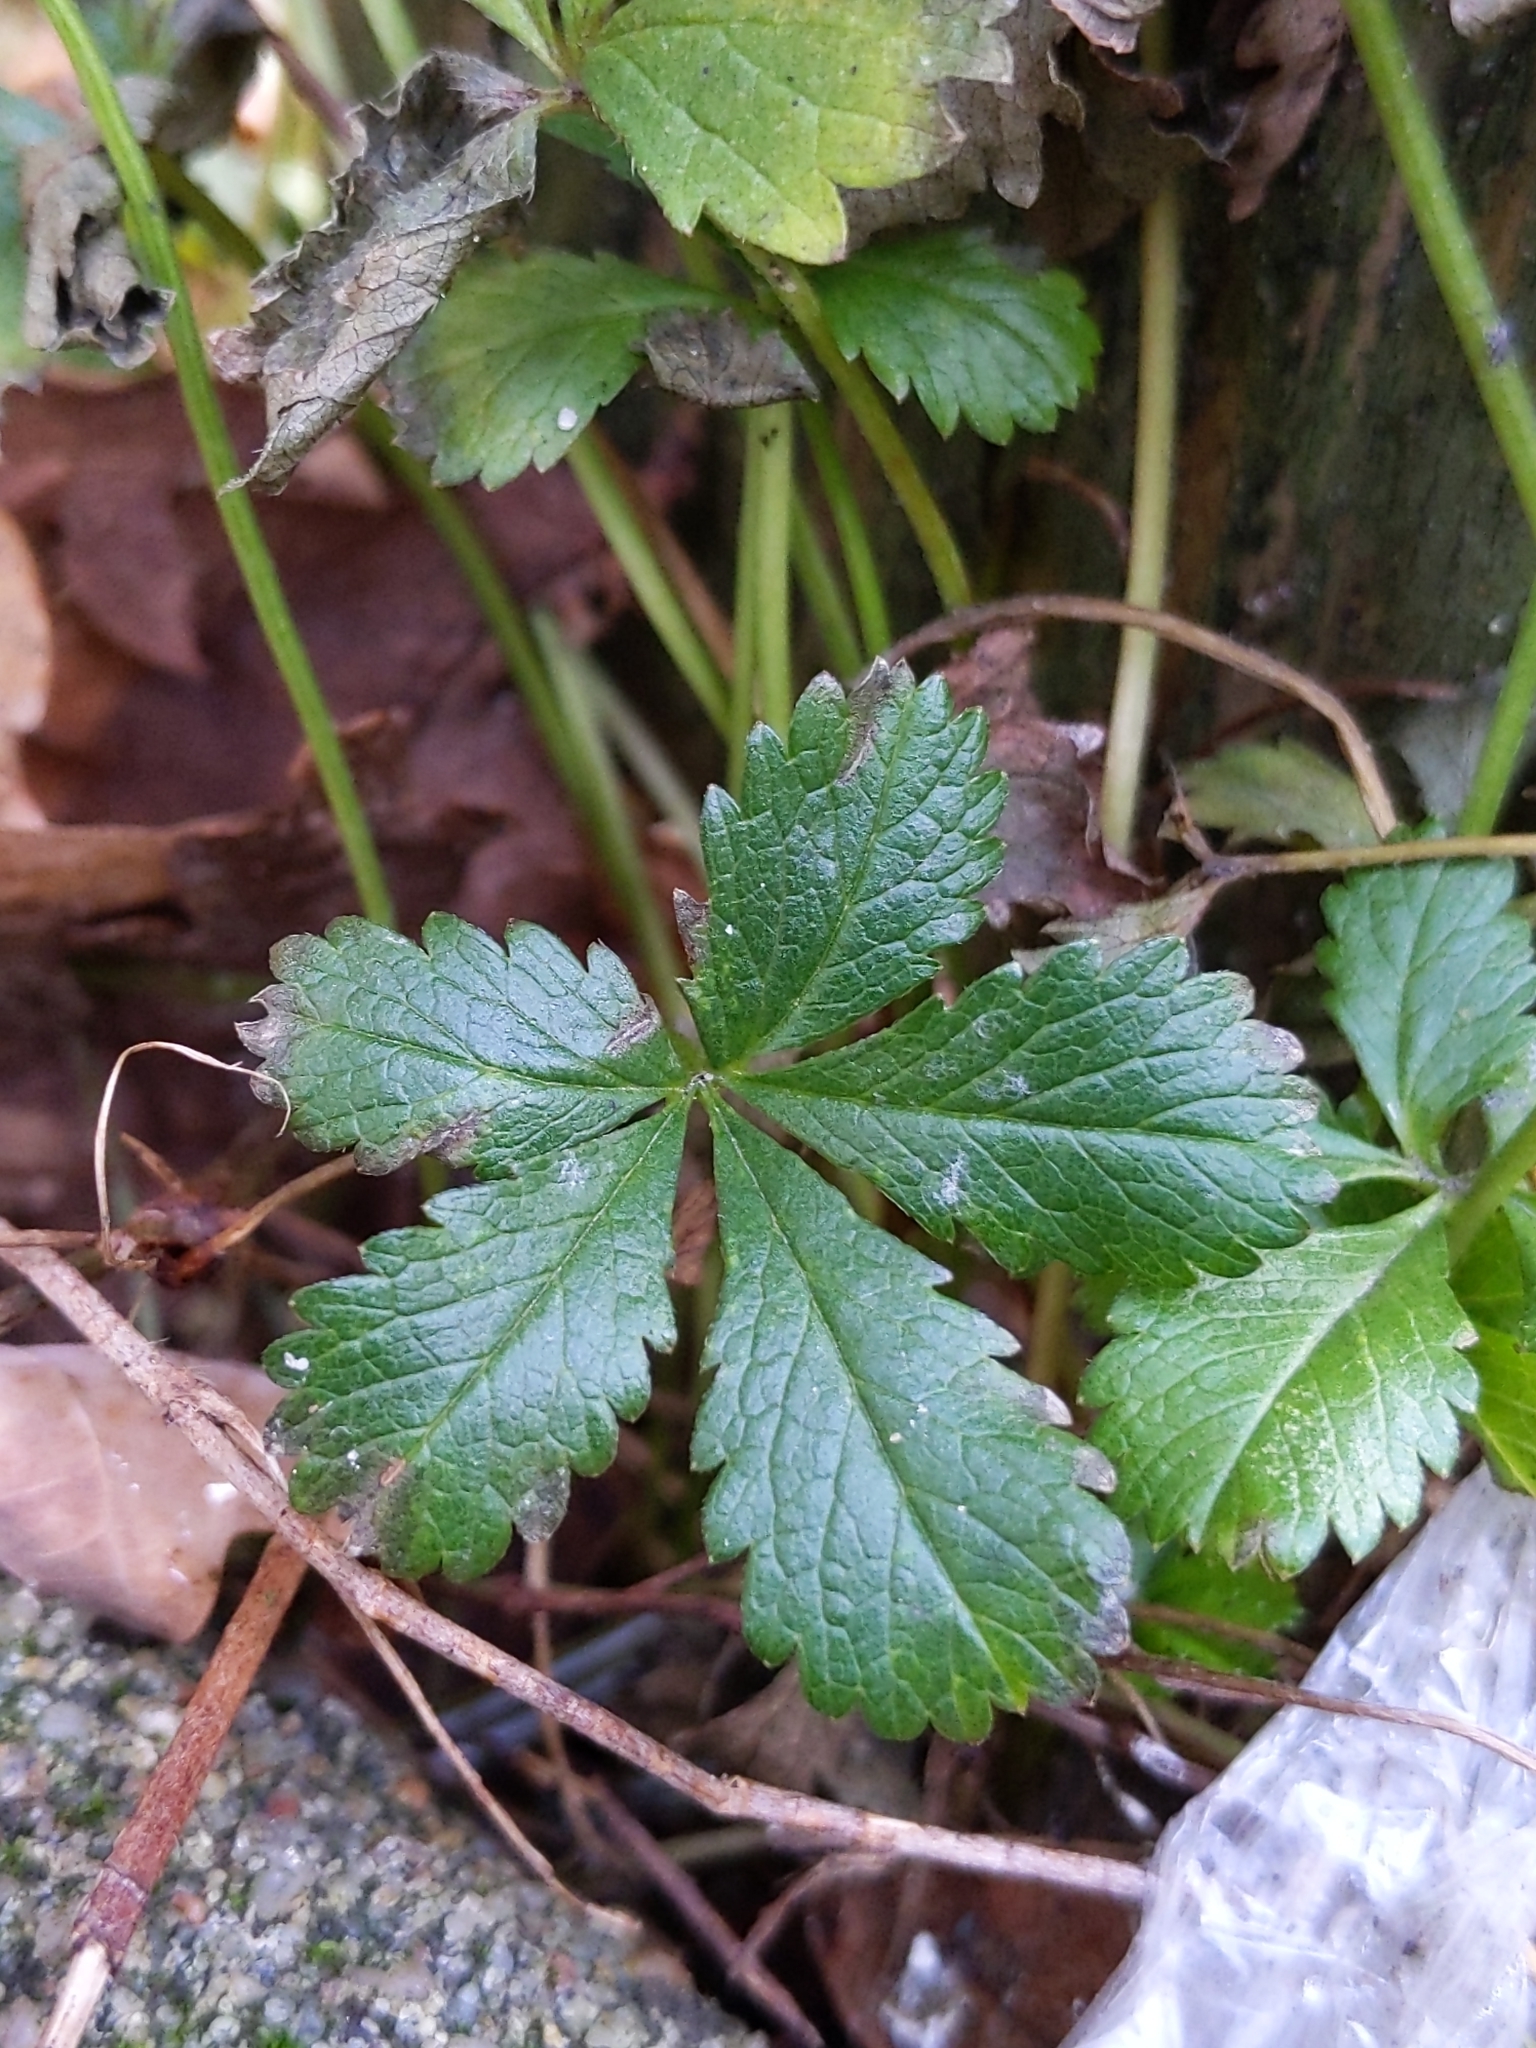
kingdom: Plantae
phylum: Tracheophyta
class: Magnoliopsida
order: Rosales
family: Rosaceae
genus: Potentilla
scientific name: Potentilla reptans
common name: Creeping cinquefoil
